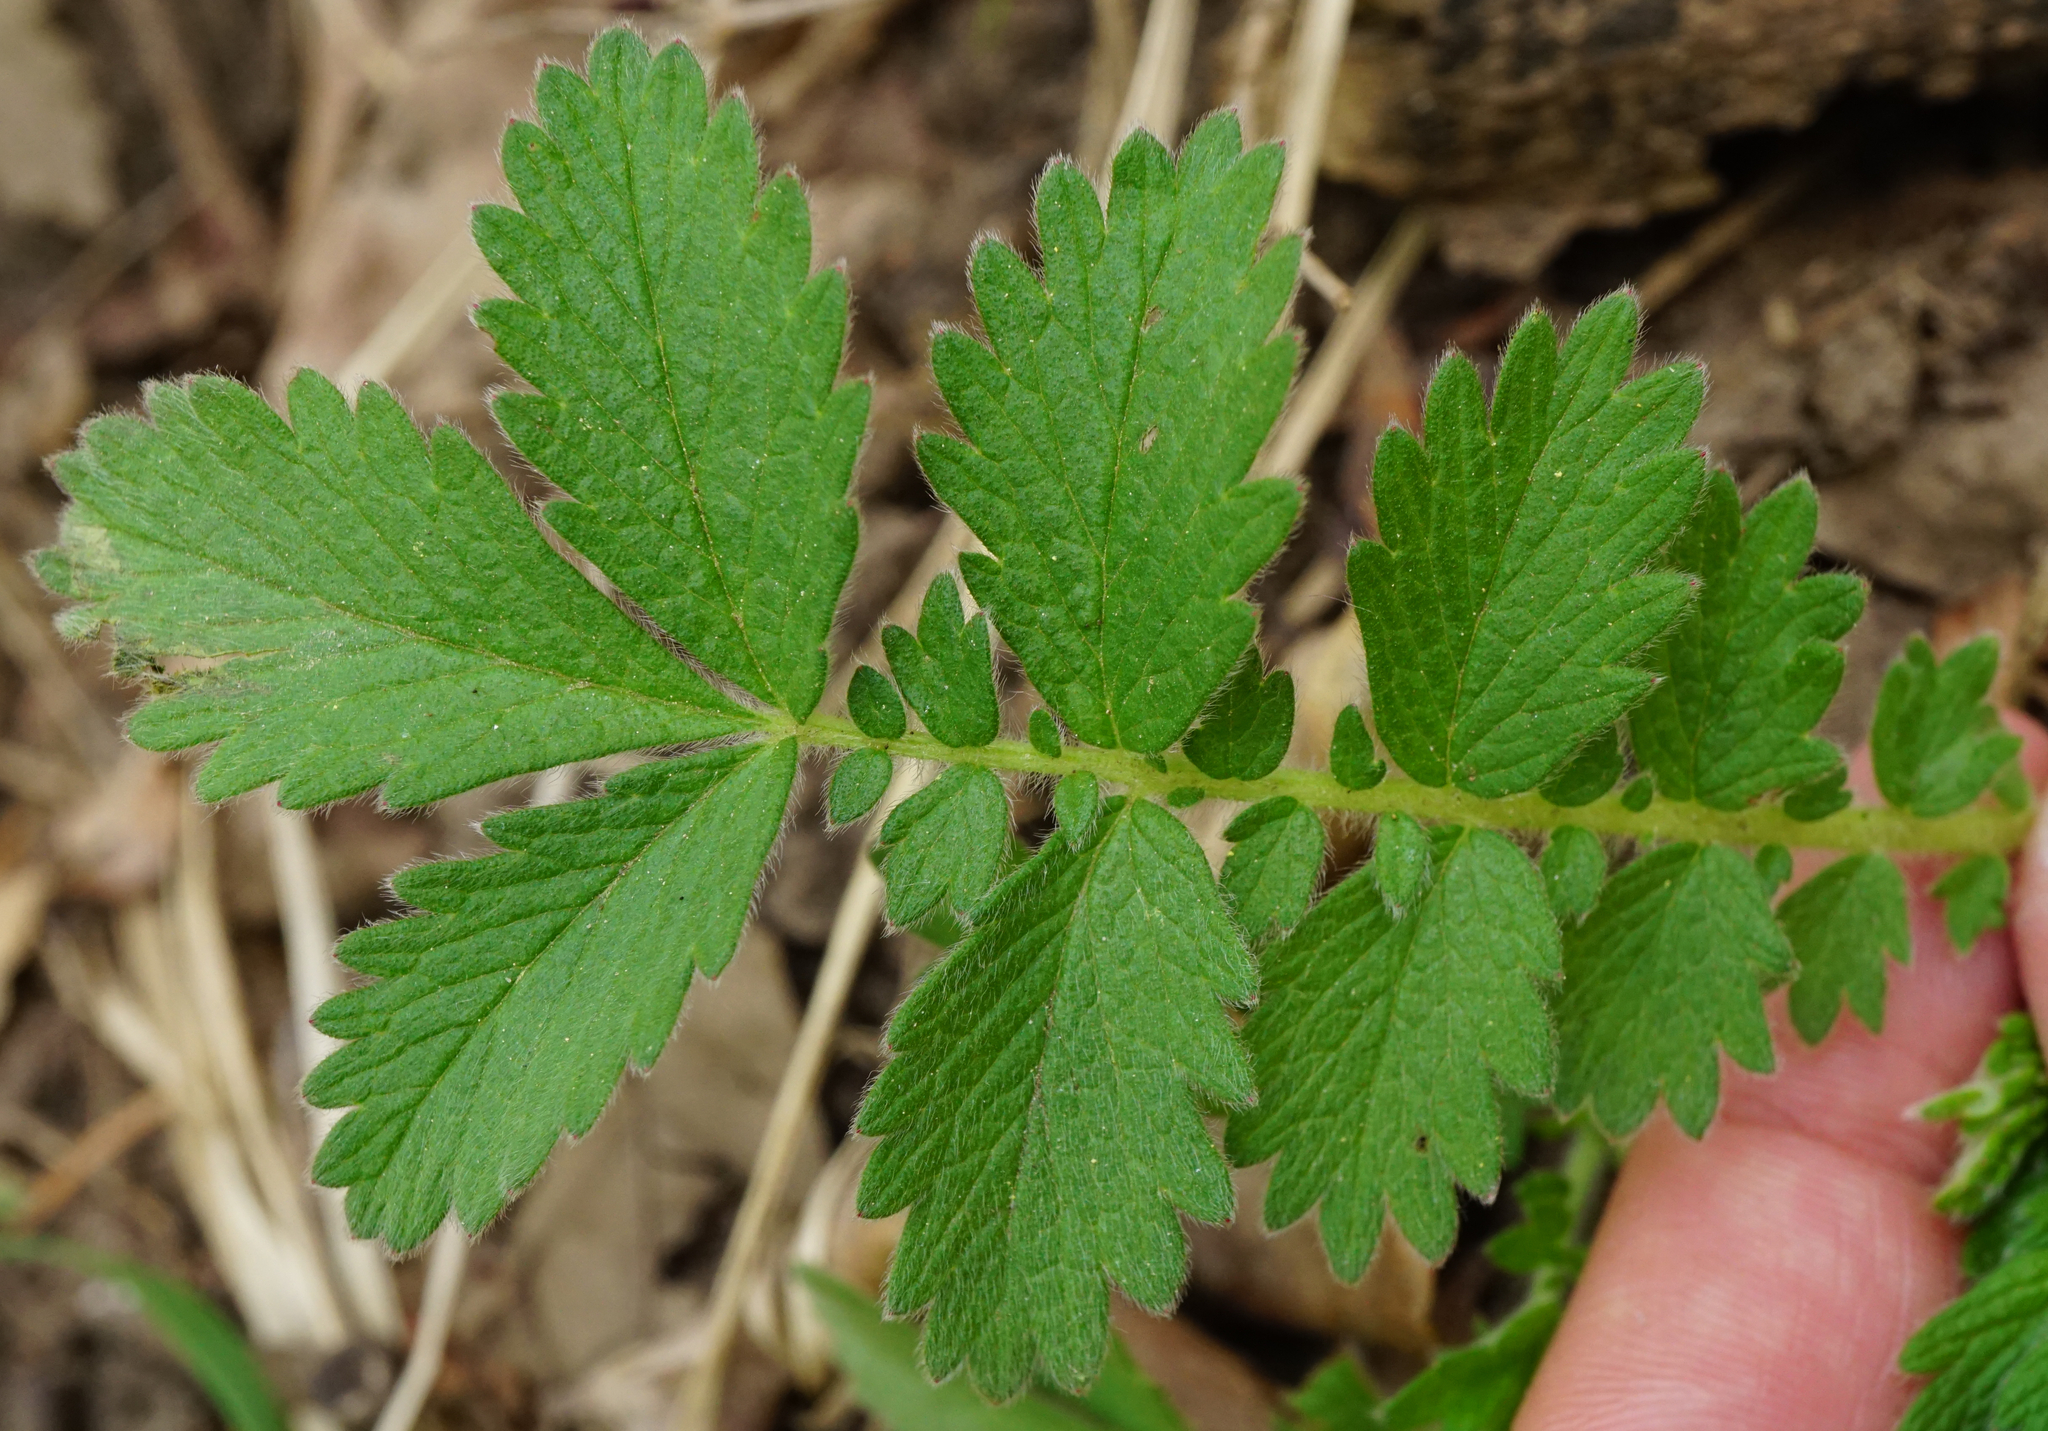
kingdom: Plantae
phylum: Tracheophyta
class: Magnoliopsida
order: Rosales
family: Rosaceae
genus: Agrimonia
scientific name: Agrimonia eupatoria
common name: Agrimony
